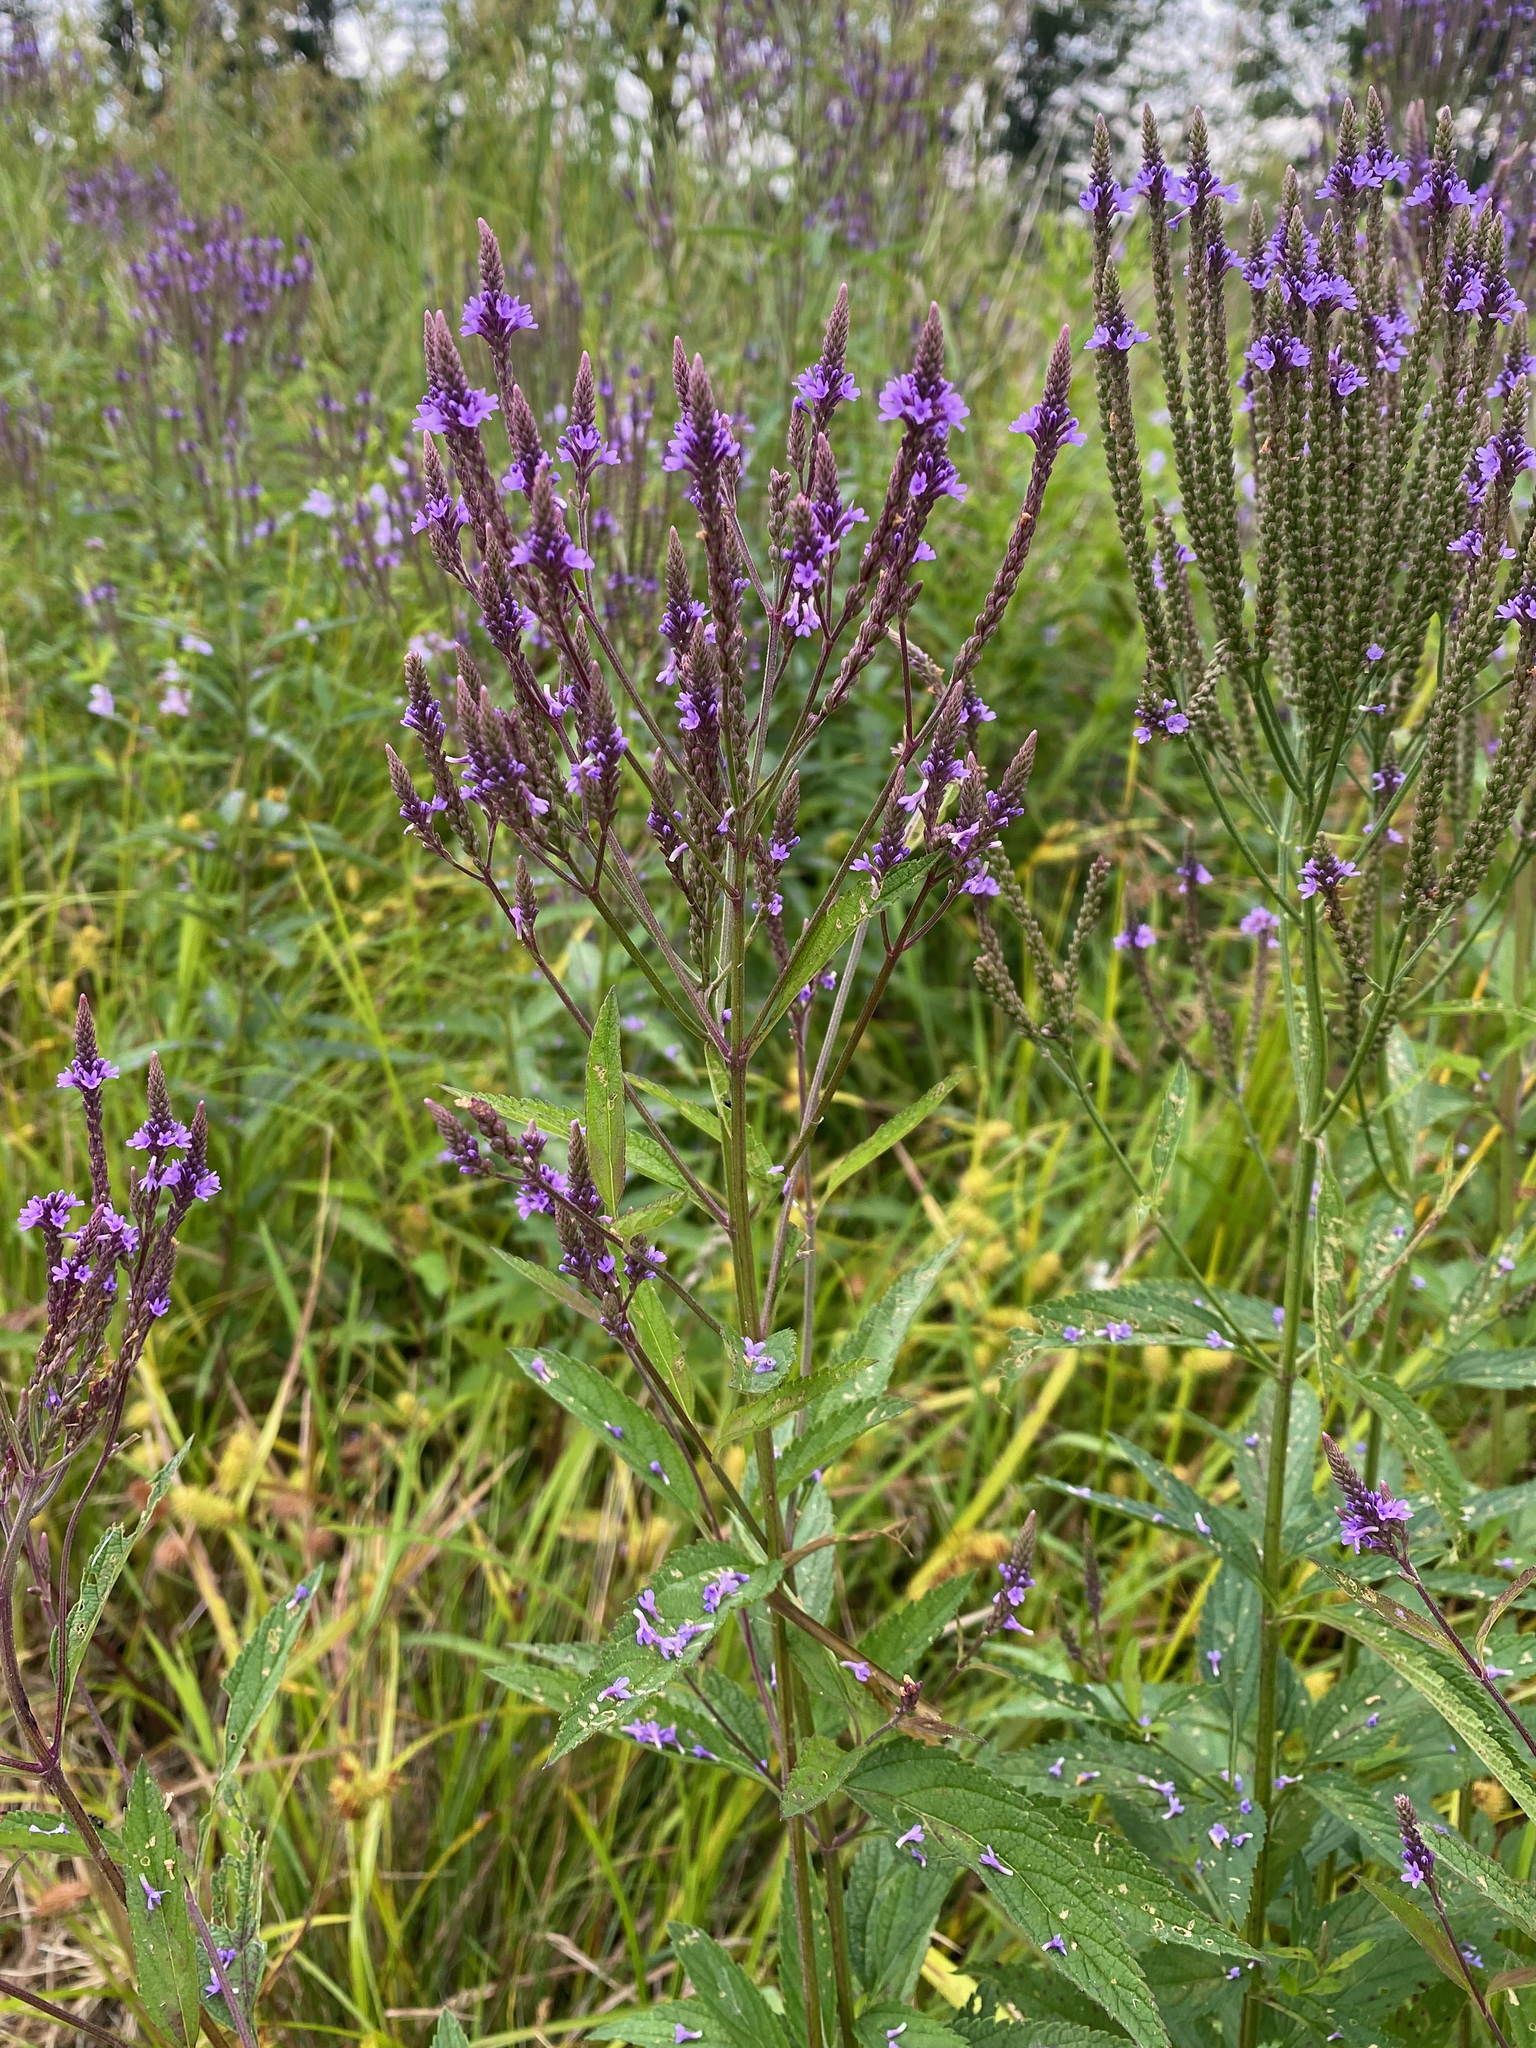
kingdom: Plantae
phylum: Tracheophyta
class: Magnoliopsida
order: Lamiales
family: Verbenaceae
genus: Verbena
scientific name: Verbena hastata
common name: American blue vervain
